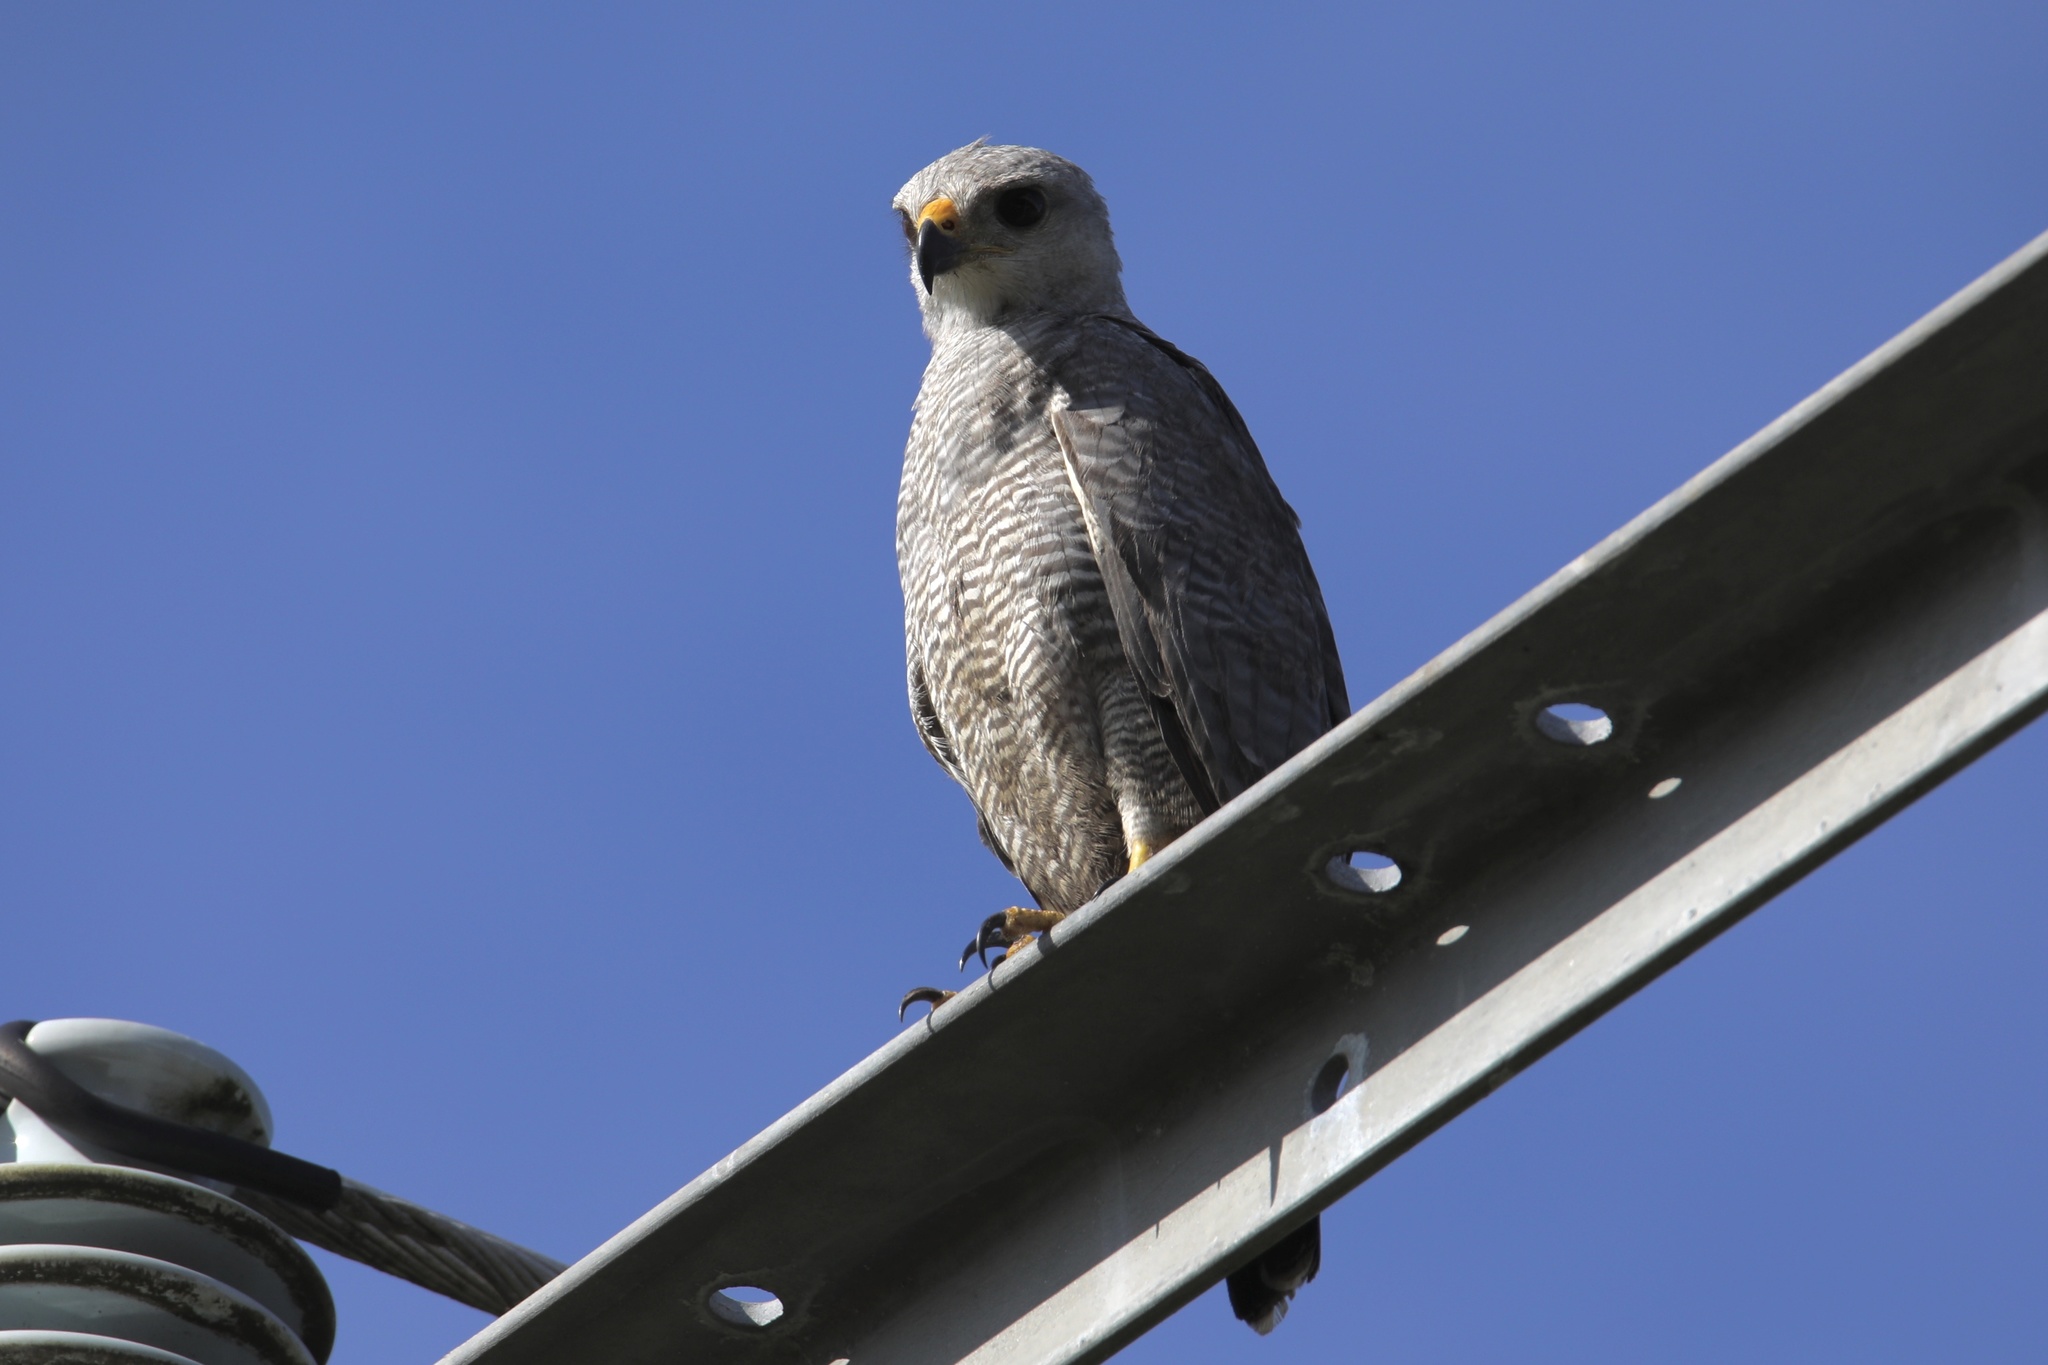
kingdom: Animalia
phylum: Chordata
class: Aves
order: Accipitriformes
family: Accipitridae
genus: Buteo
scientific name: Buteo nitidus
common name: Grey-lined hawk
